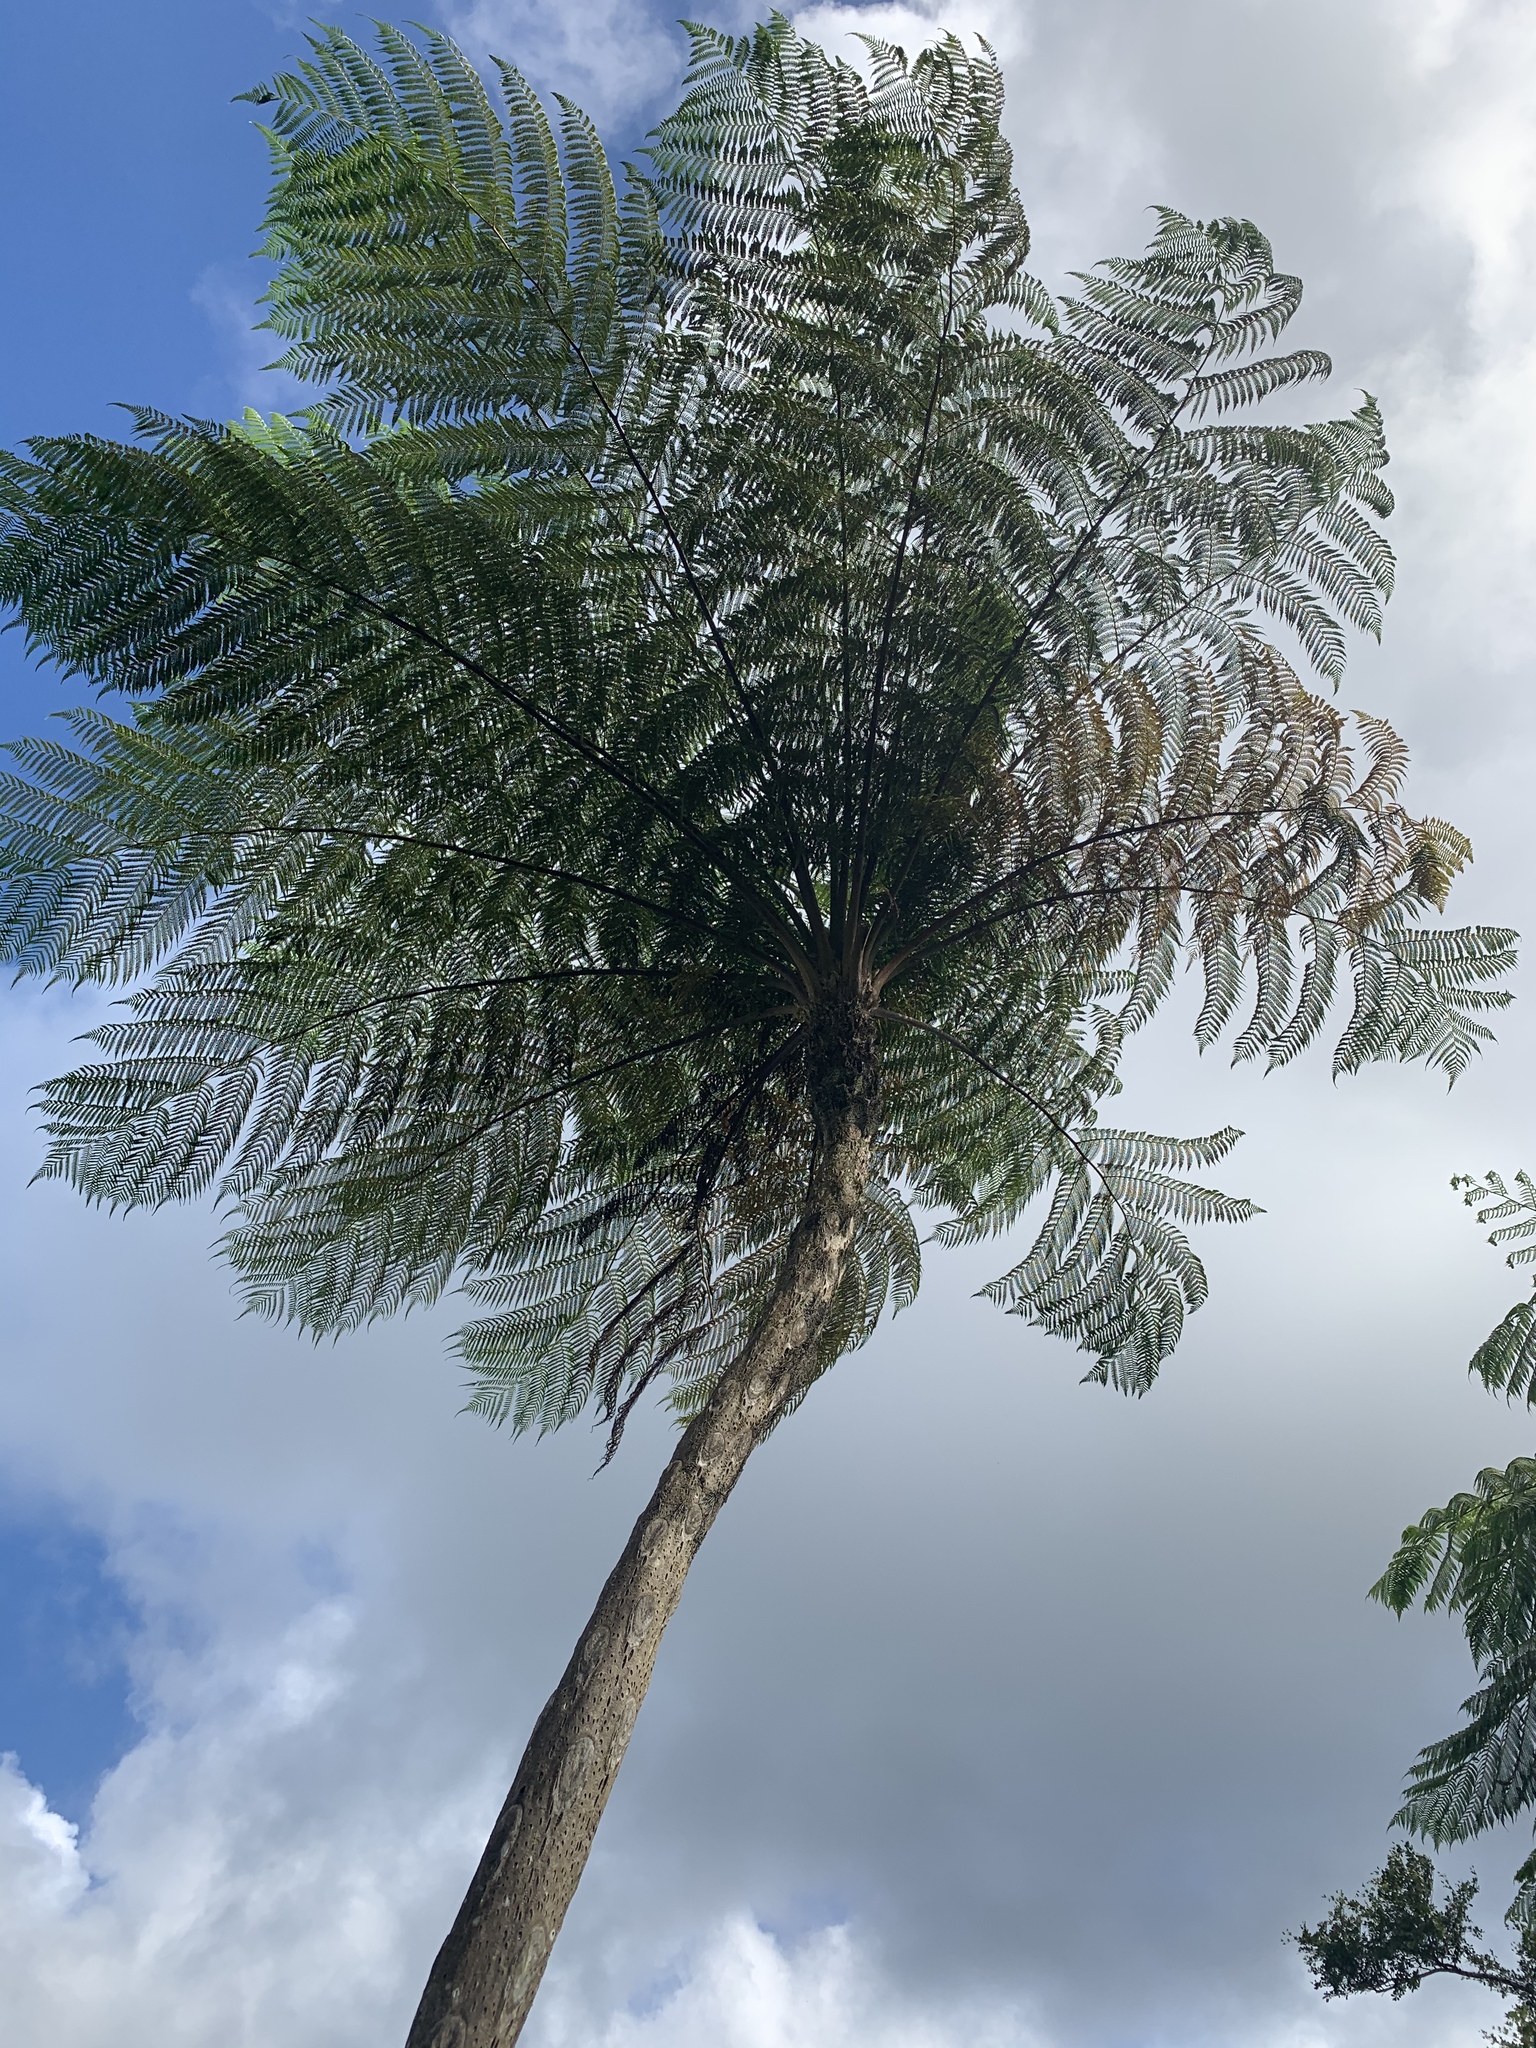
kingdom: Plantae
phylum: Tracheophyta
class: Polypodiopsida
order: Cyatheales
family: Cyatheaceae
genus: Cyathea
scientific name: Cyathea arborea
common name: West indian treefern
